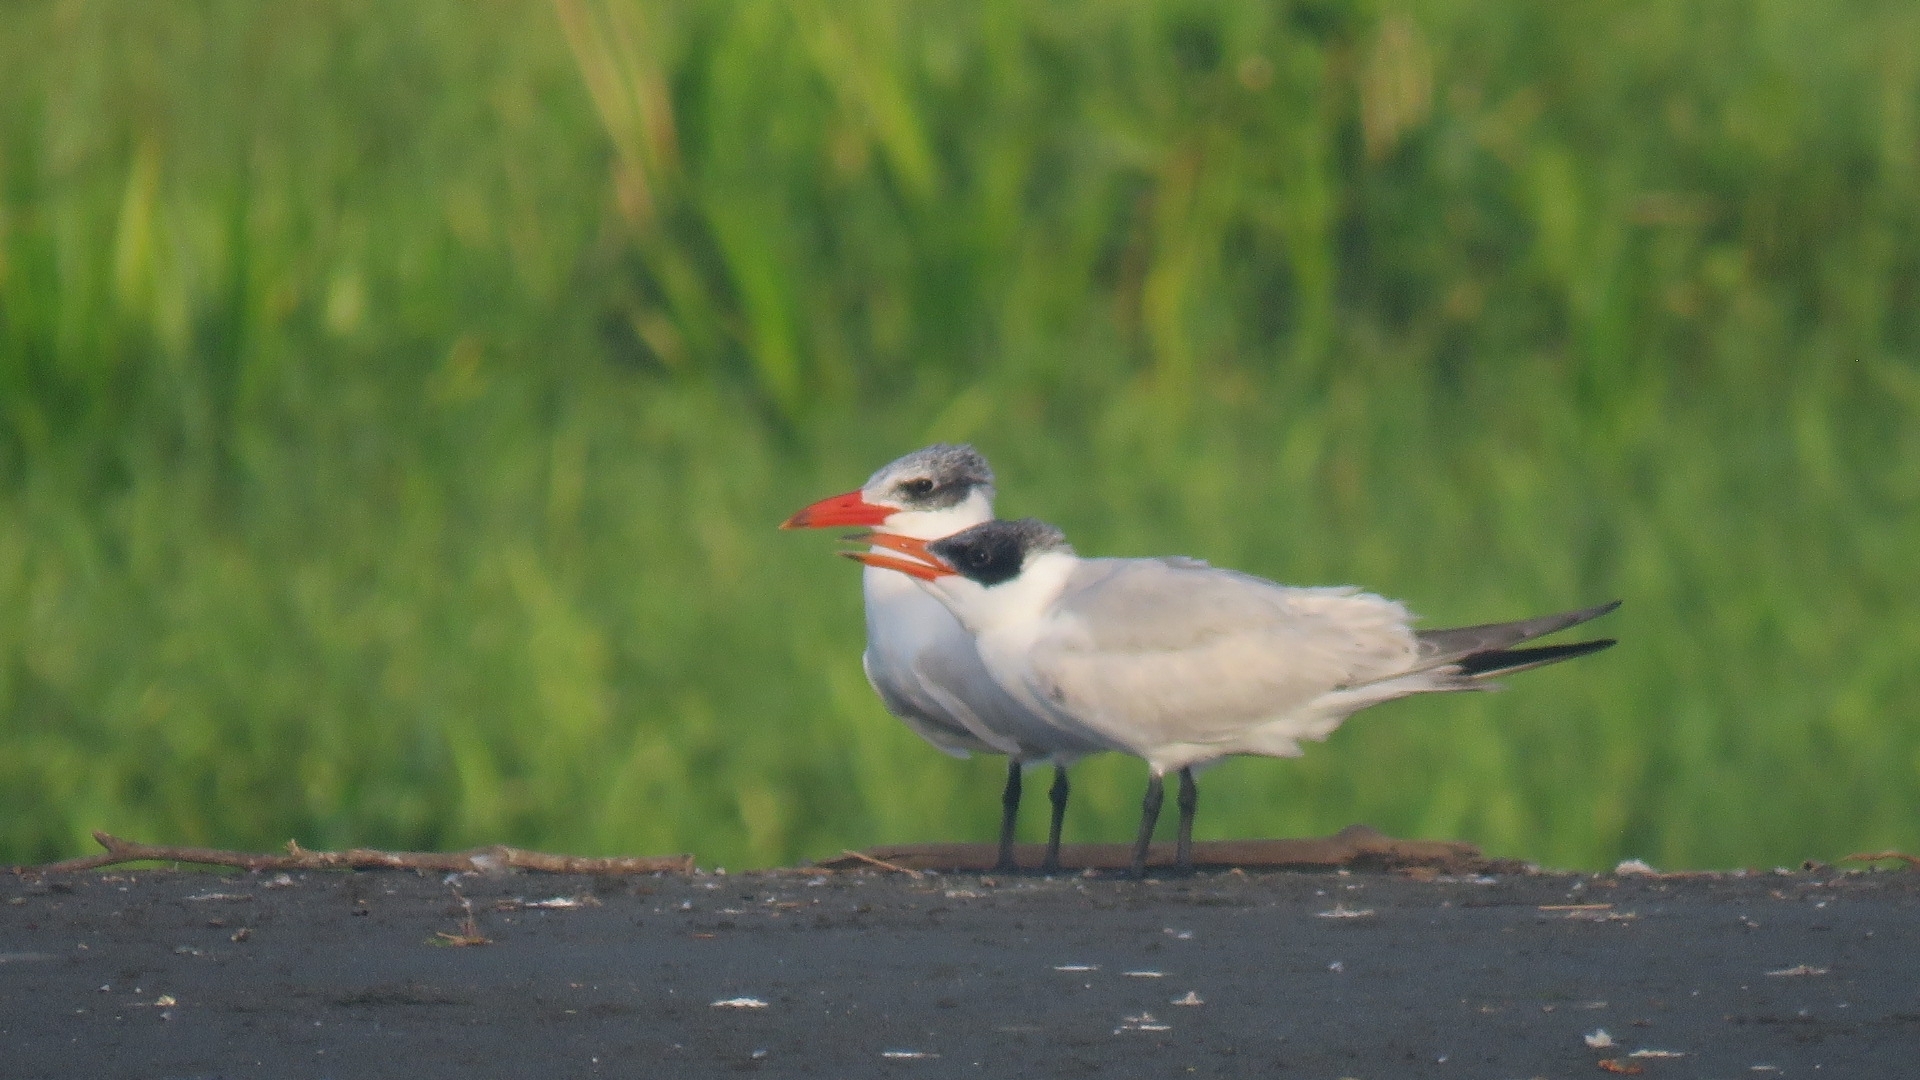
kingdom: Animalia
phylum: Chordata
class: Aves
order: Charadriiformes
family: Laridae
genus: Hydroprogne
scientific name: Hydroprogne caspia
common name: Caspian tern
